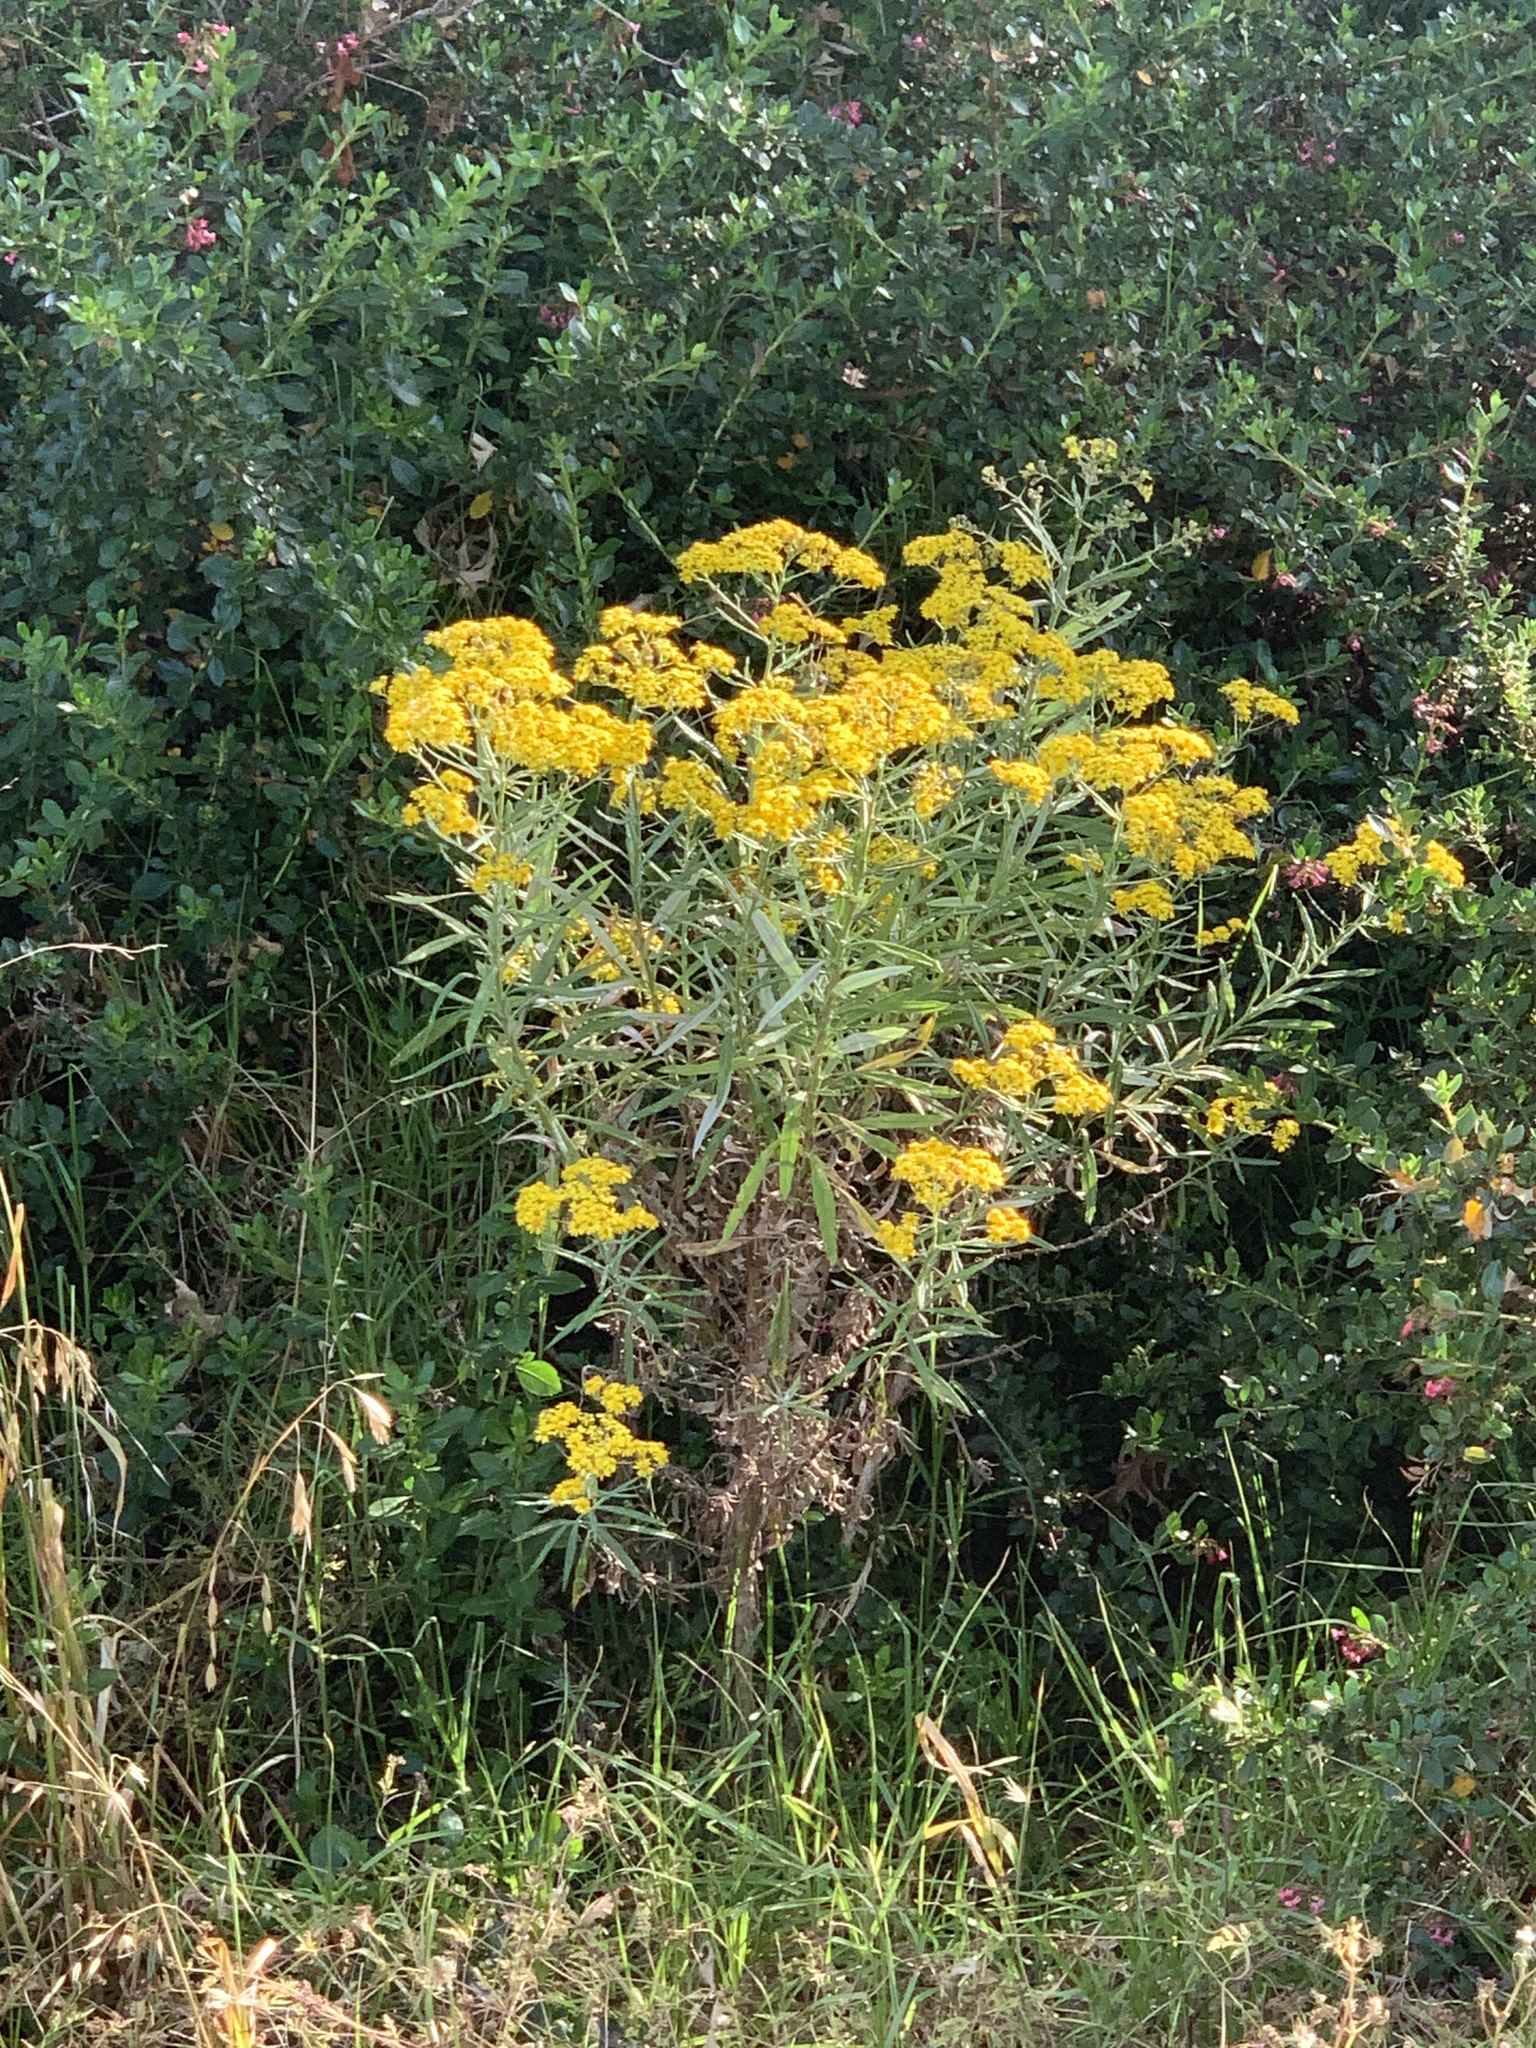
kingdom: Plantae
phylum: Tracheophyta
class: Magnoliopsida
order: Asterales
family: Asteraceae
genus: Senecio
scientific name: Senecio pterophorus
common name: Shoddy ragwort
